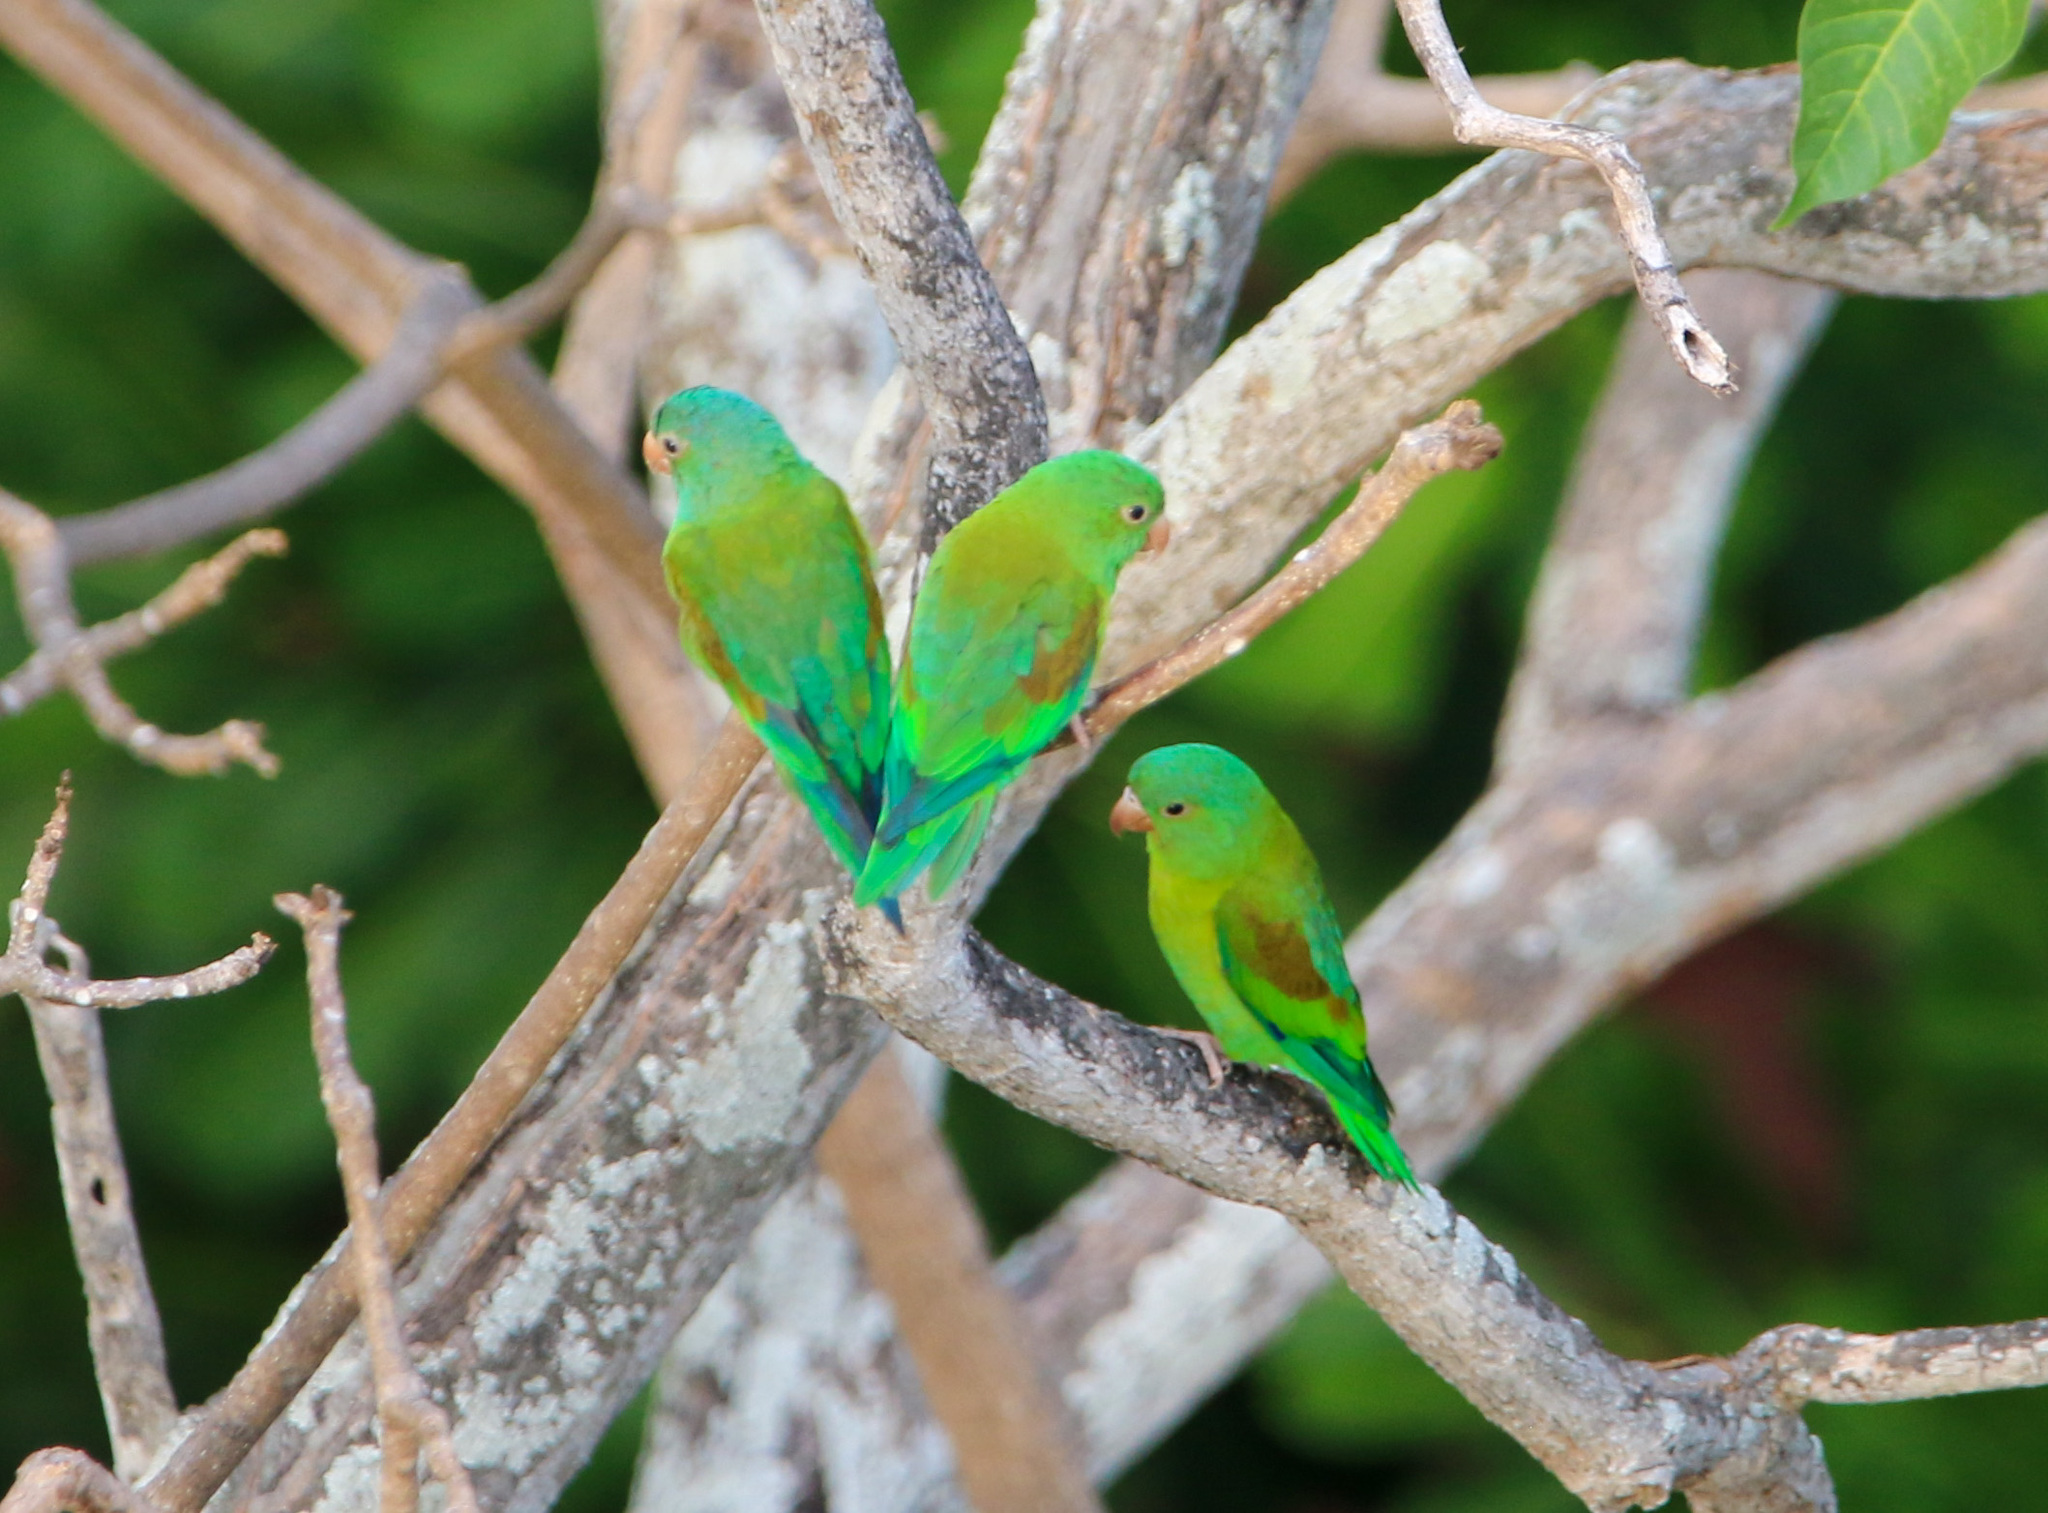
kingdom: Animalia
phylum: Chordata
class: Aves
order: Psittaciformes
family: Psittacidae
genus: Brotogeris
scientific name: Brotogeris jugularis
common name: Orange-chinned parakeet
